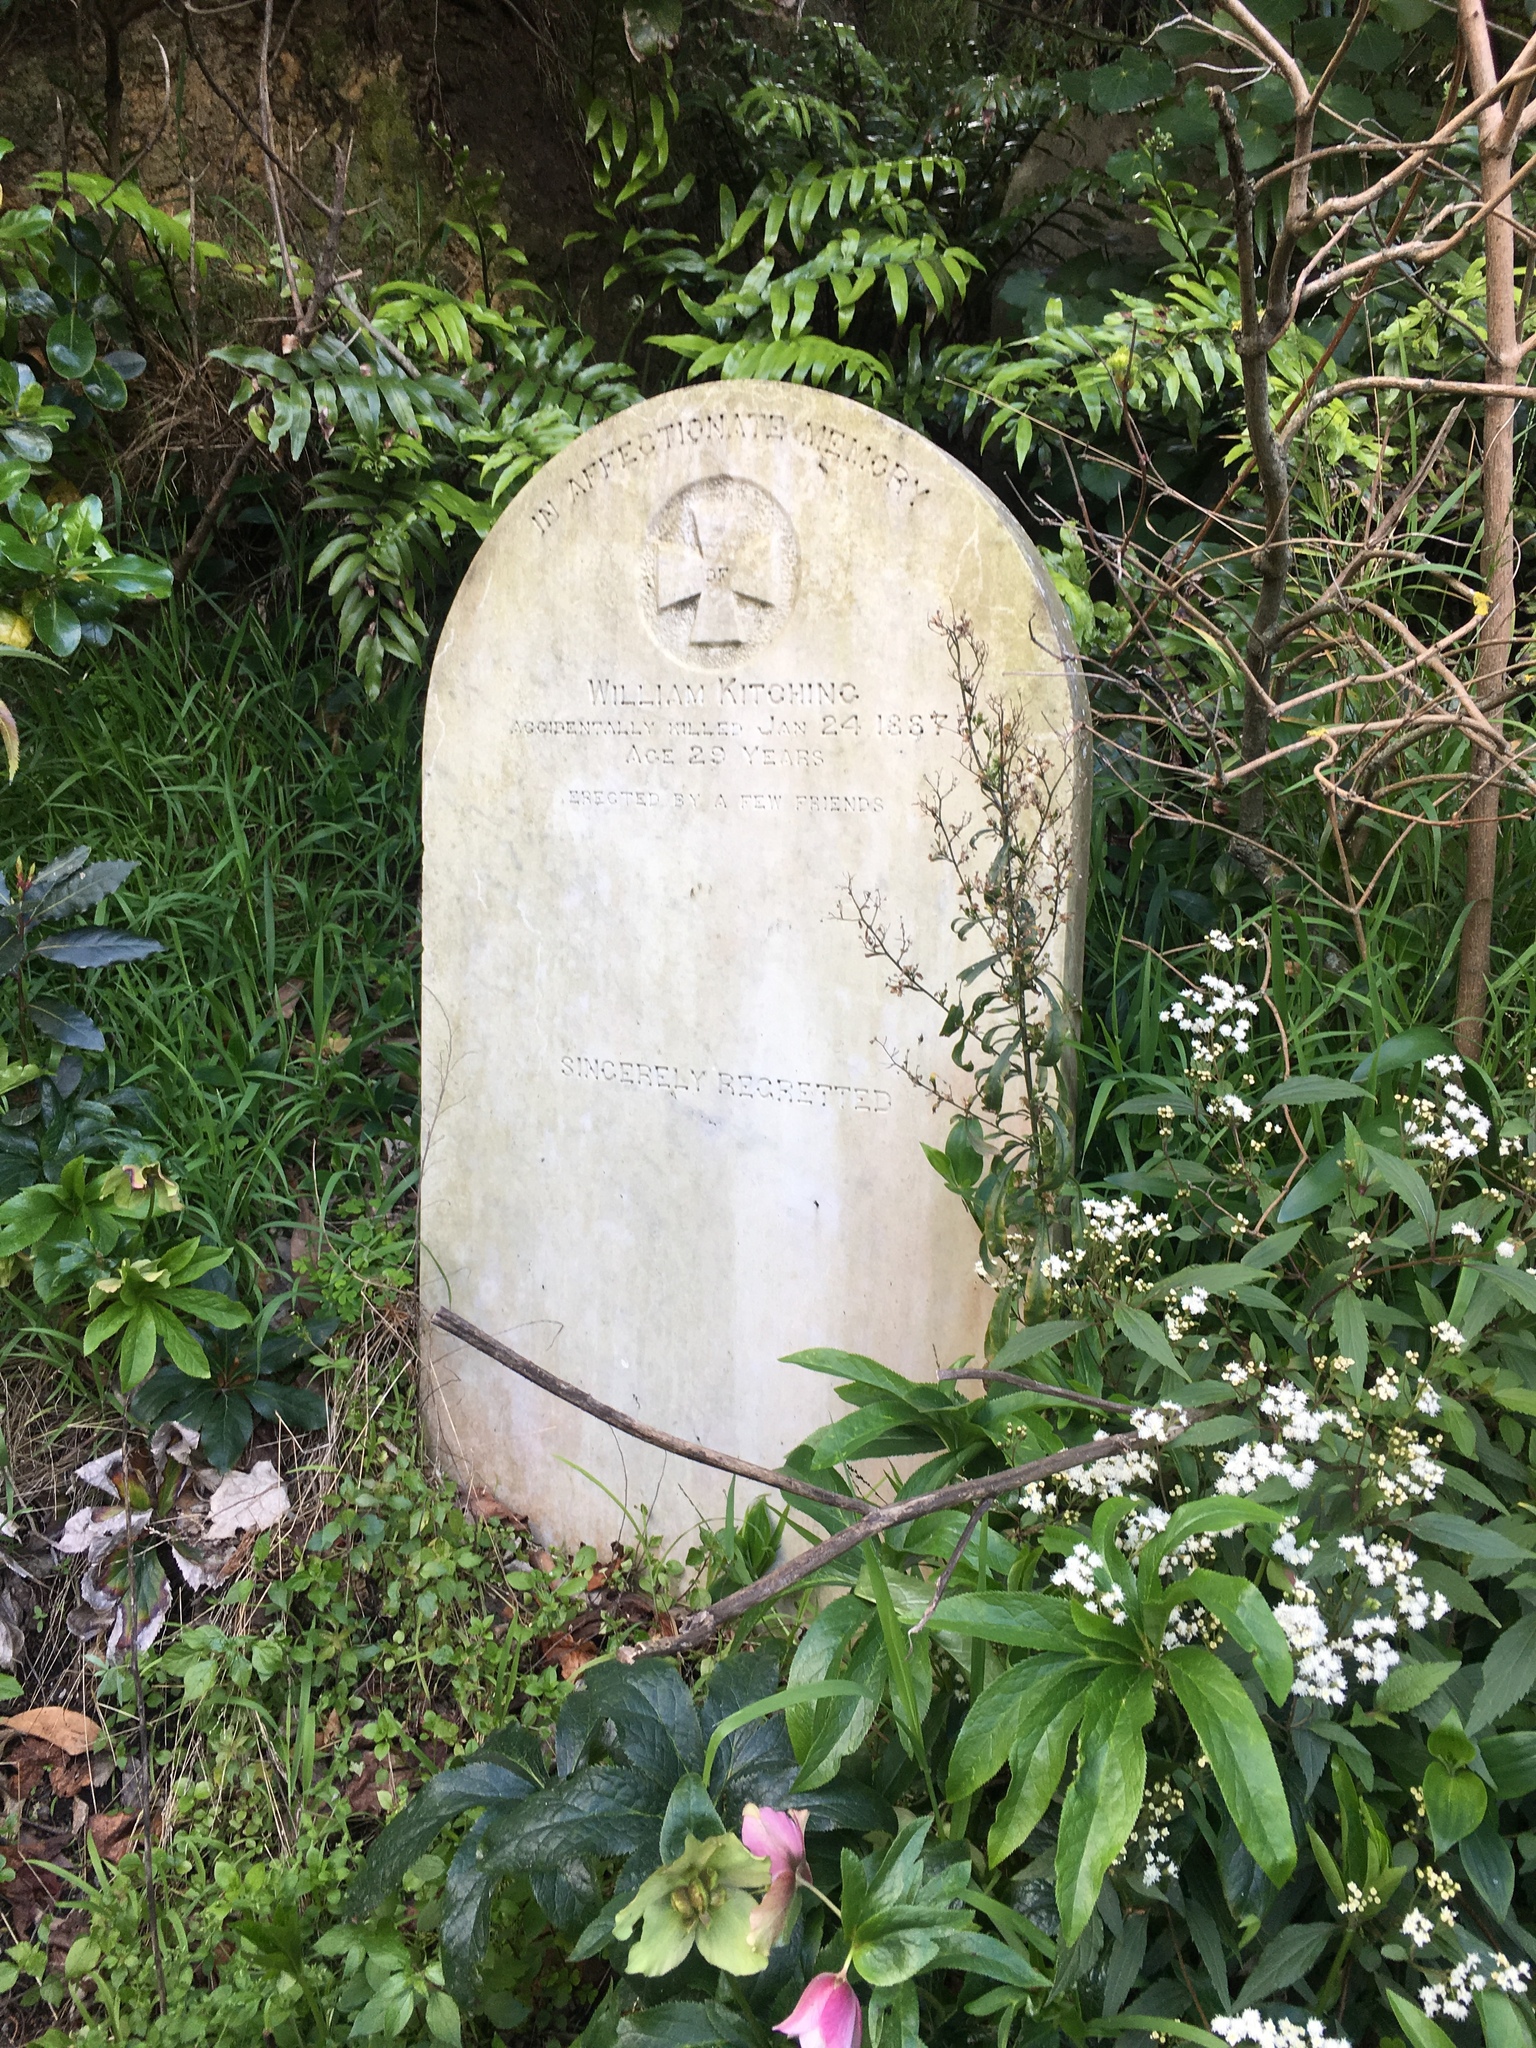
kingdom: Plantae
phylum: Tracheophyta
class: Magnoliopsida
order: Asterales
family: Asteraceae
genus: Ageratina
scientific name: Ageratina riparia
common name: Creeping croftonweed
